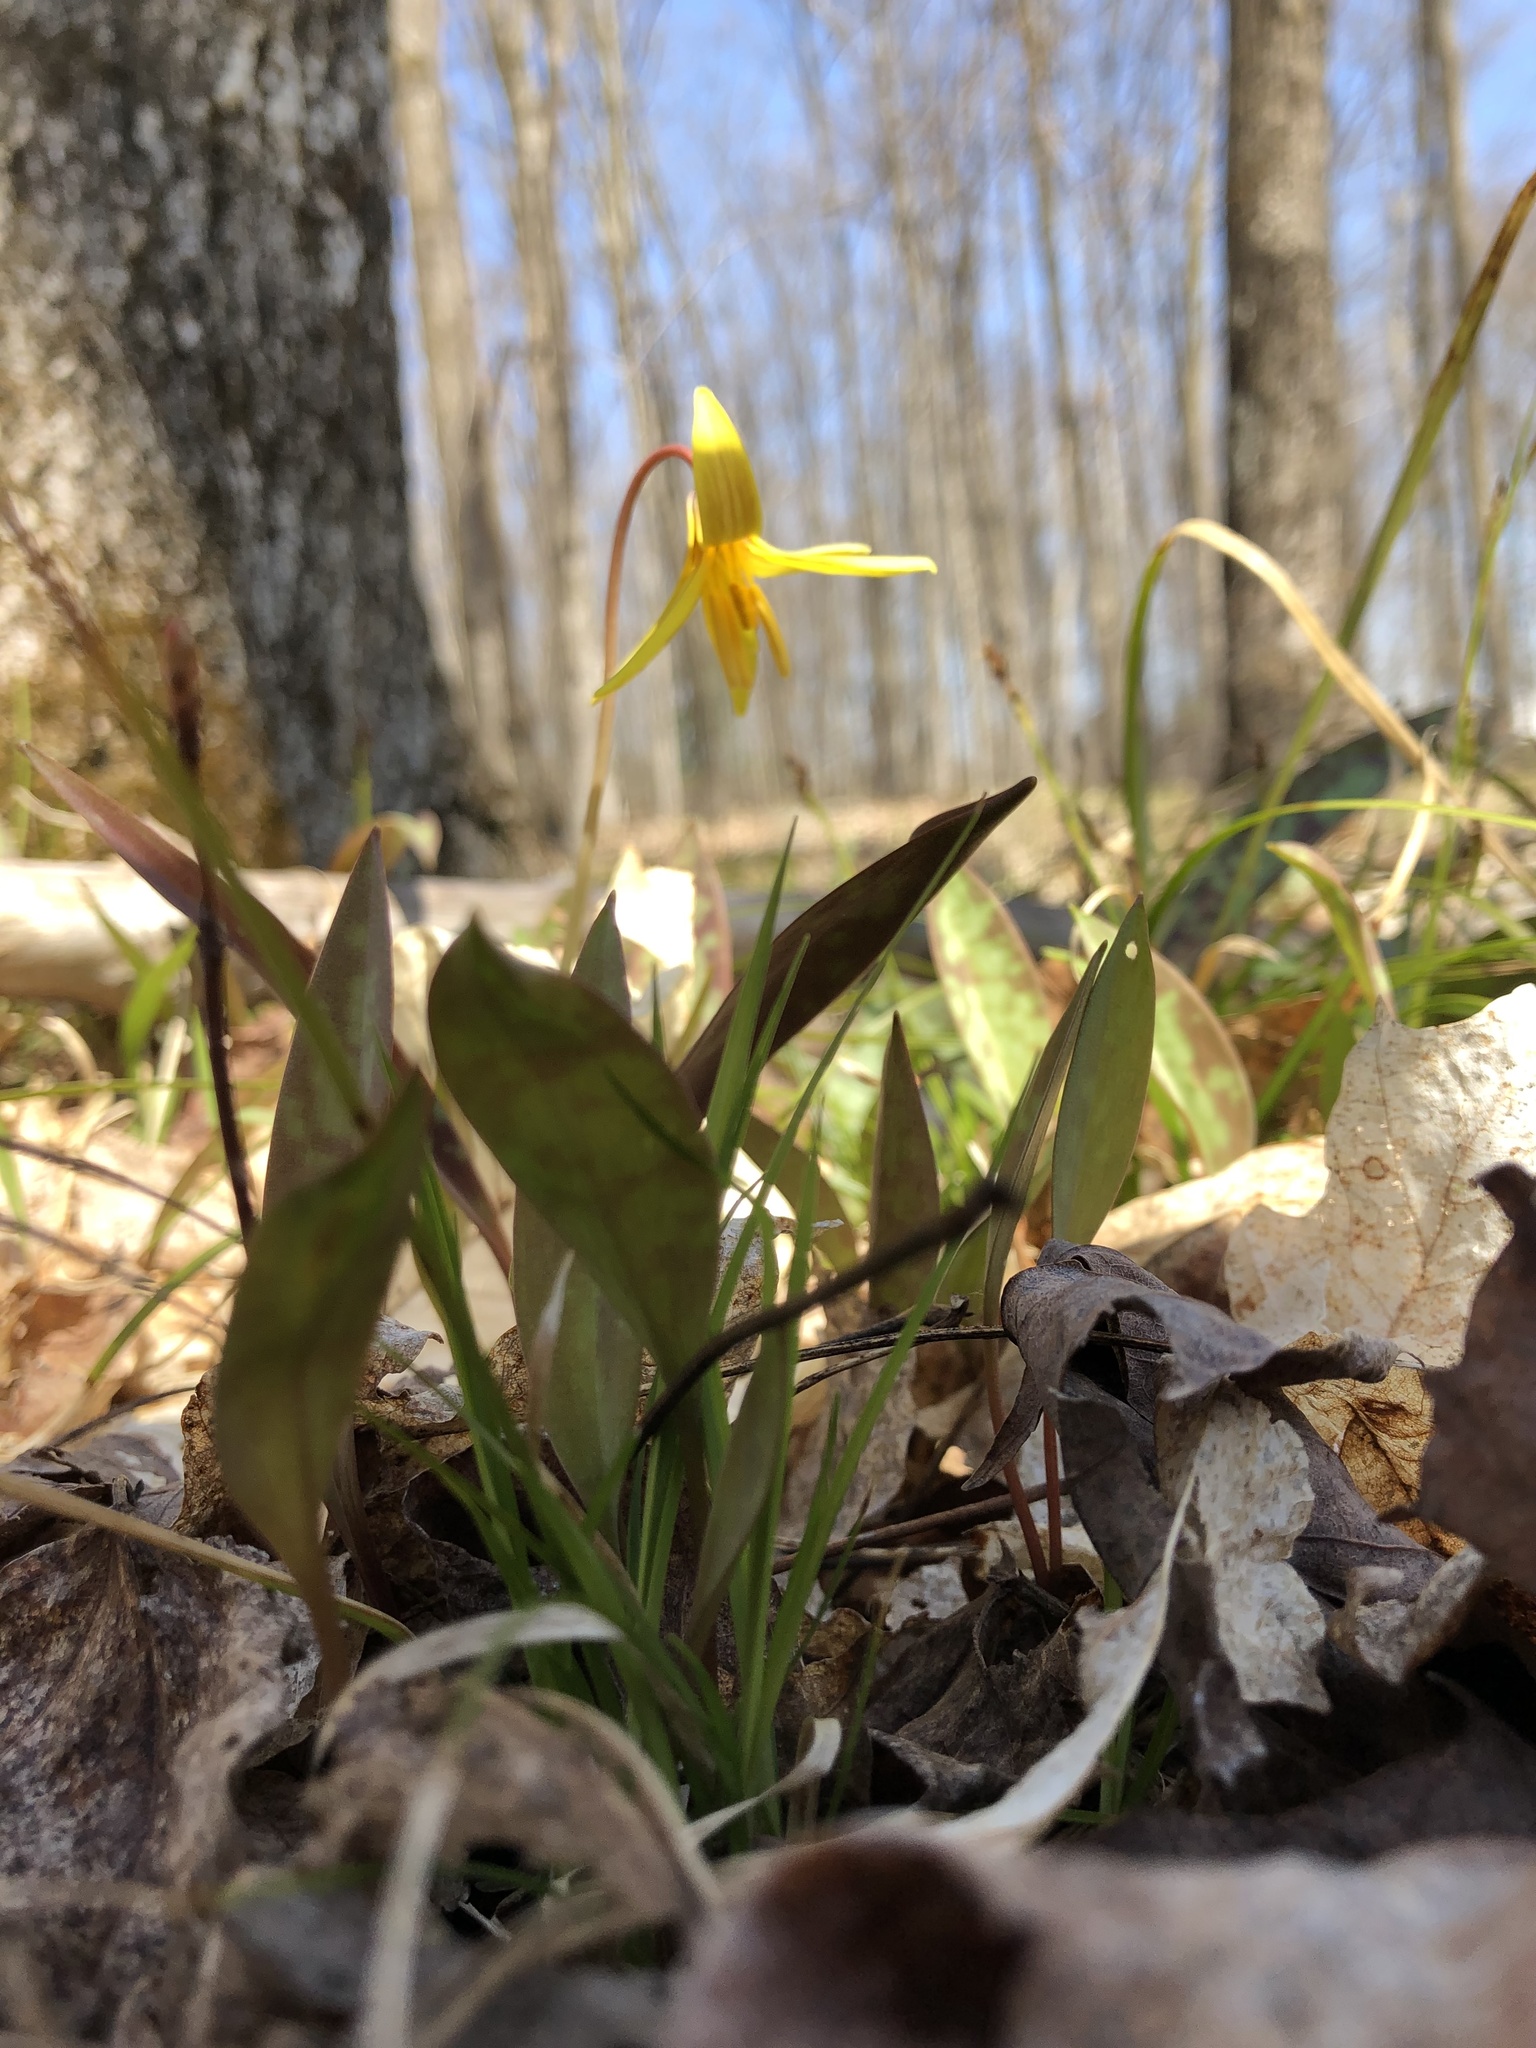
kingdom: Plantae
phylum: Tracheophyta
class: Liliopsida
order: Liliales
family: Liliaceae
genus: Erythronium
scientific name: Erythronium americanum
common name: Yellow adder's-tongue
